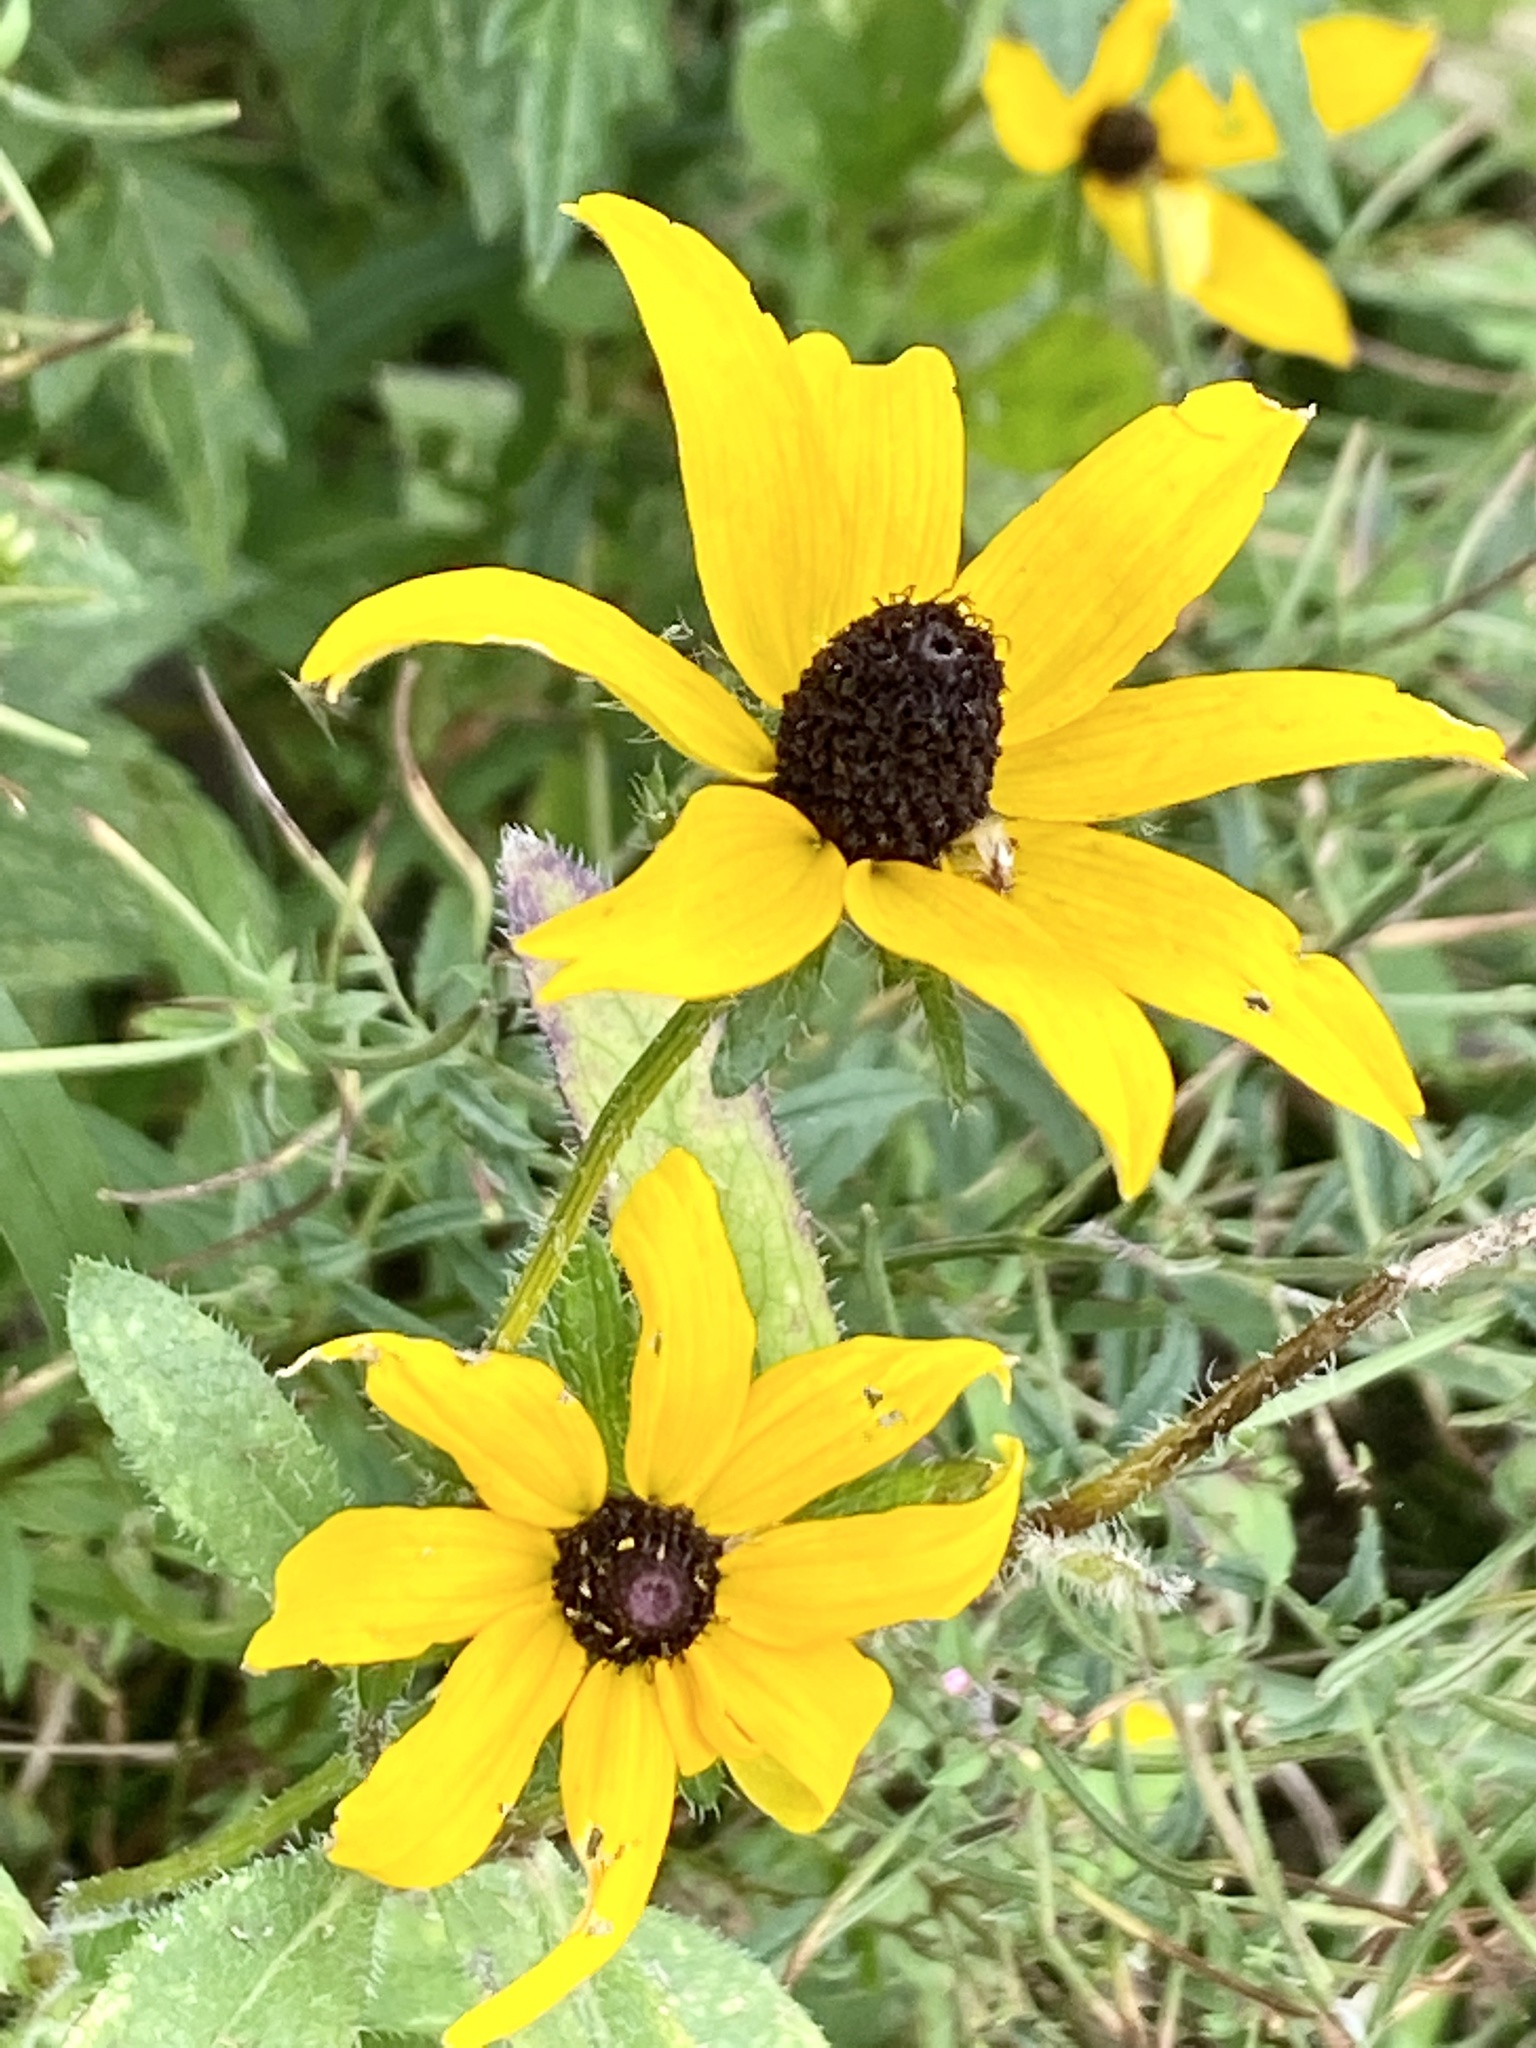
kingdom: Plantae
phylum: Tracheophyta
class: Magnoliopsida
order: Asterales
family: Asteraceae
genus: Rudbeckia
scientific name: Rudbeckia hirta
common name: Black-eyed-susan
